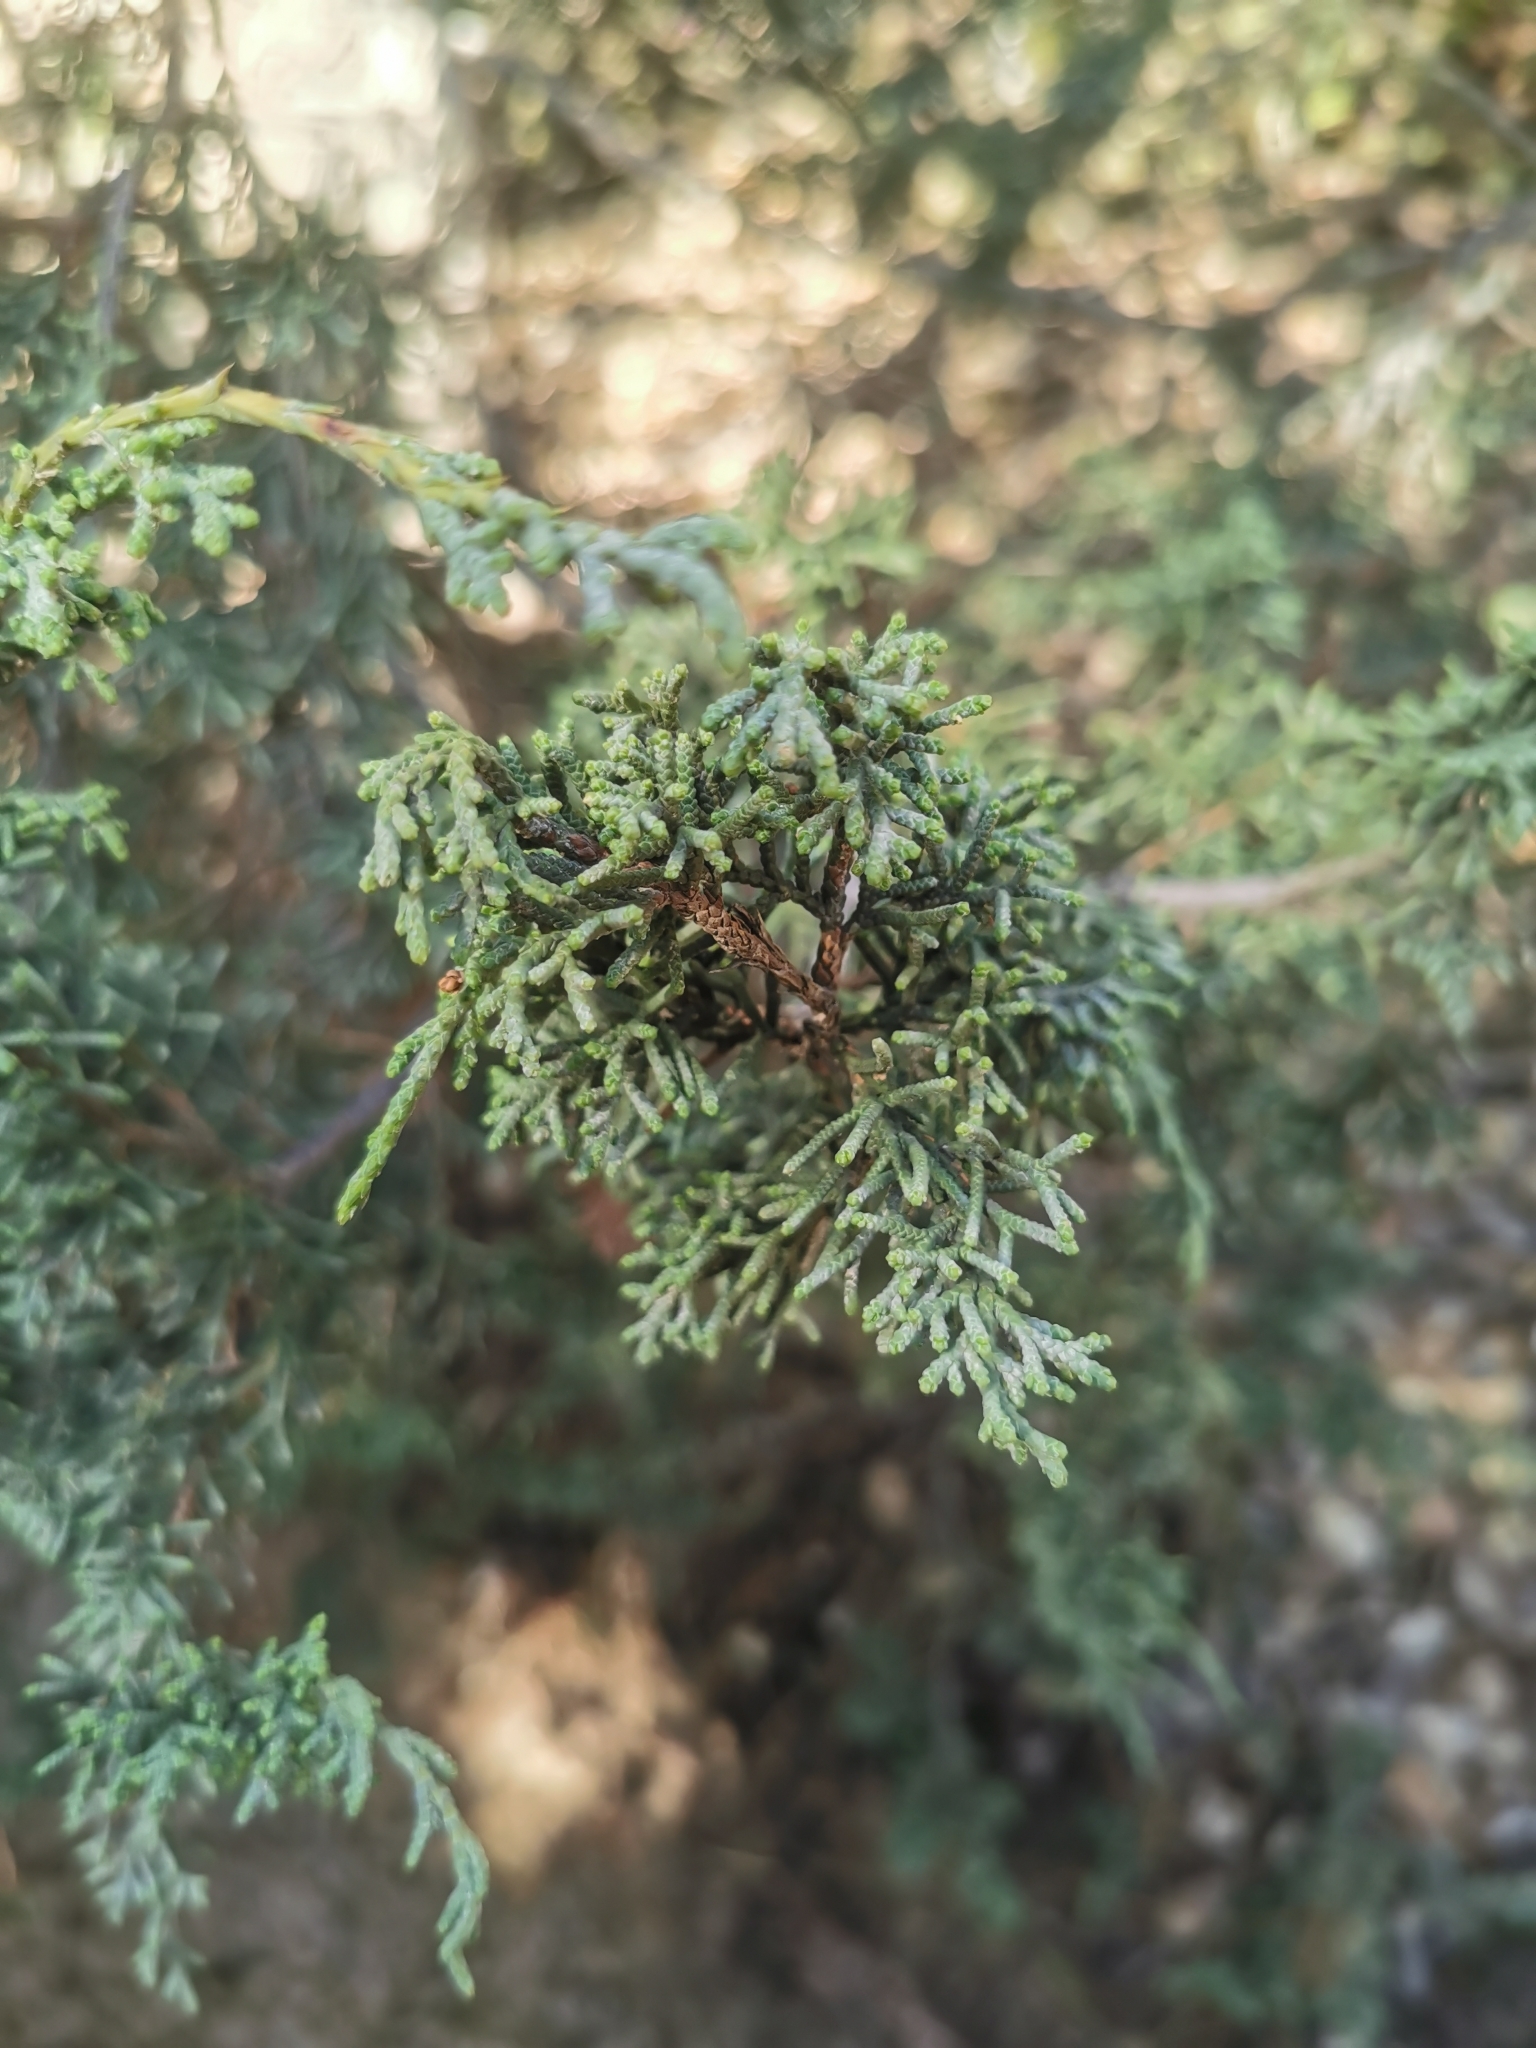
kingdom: Plantae
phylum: Tracheophyta
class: Pinopsida
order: Pinales
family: Cupressaceae
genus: Juniperus
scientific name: Juniperus durangensis
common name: Durango juniper
